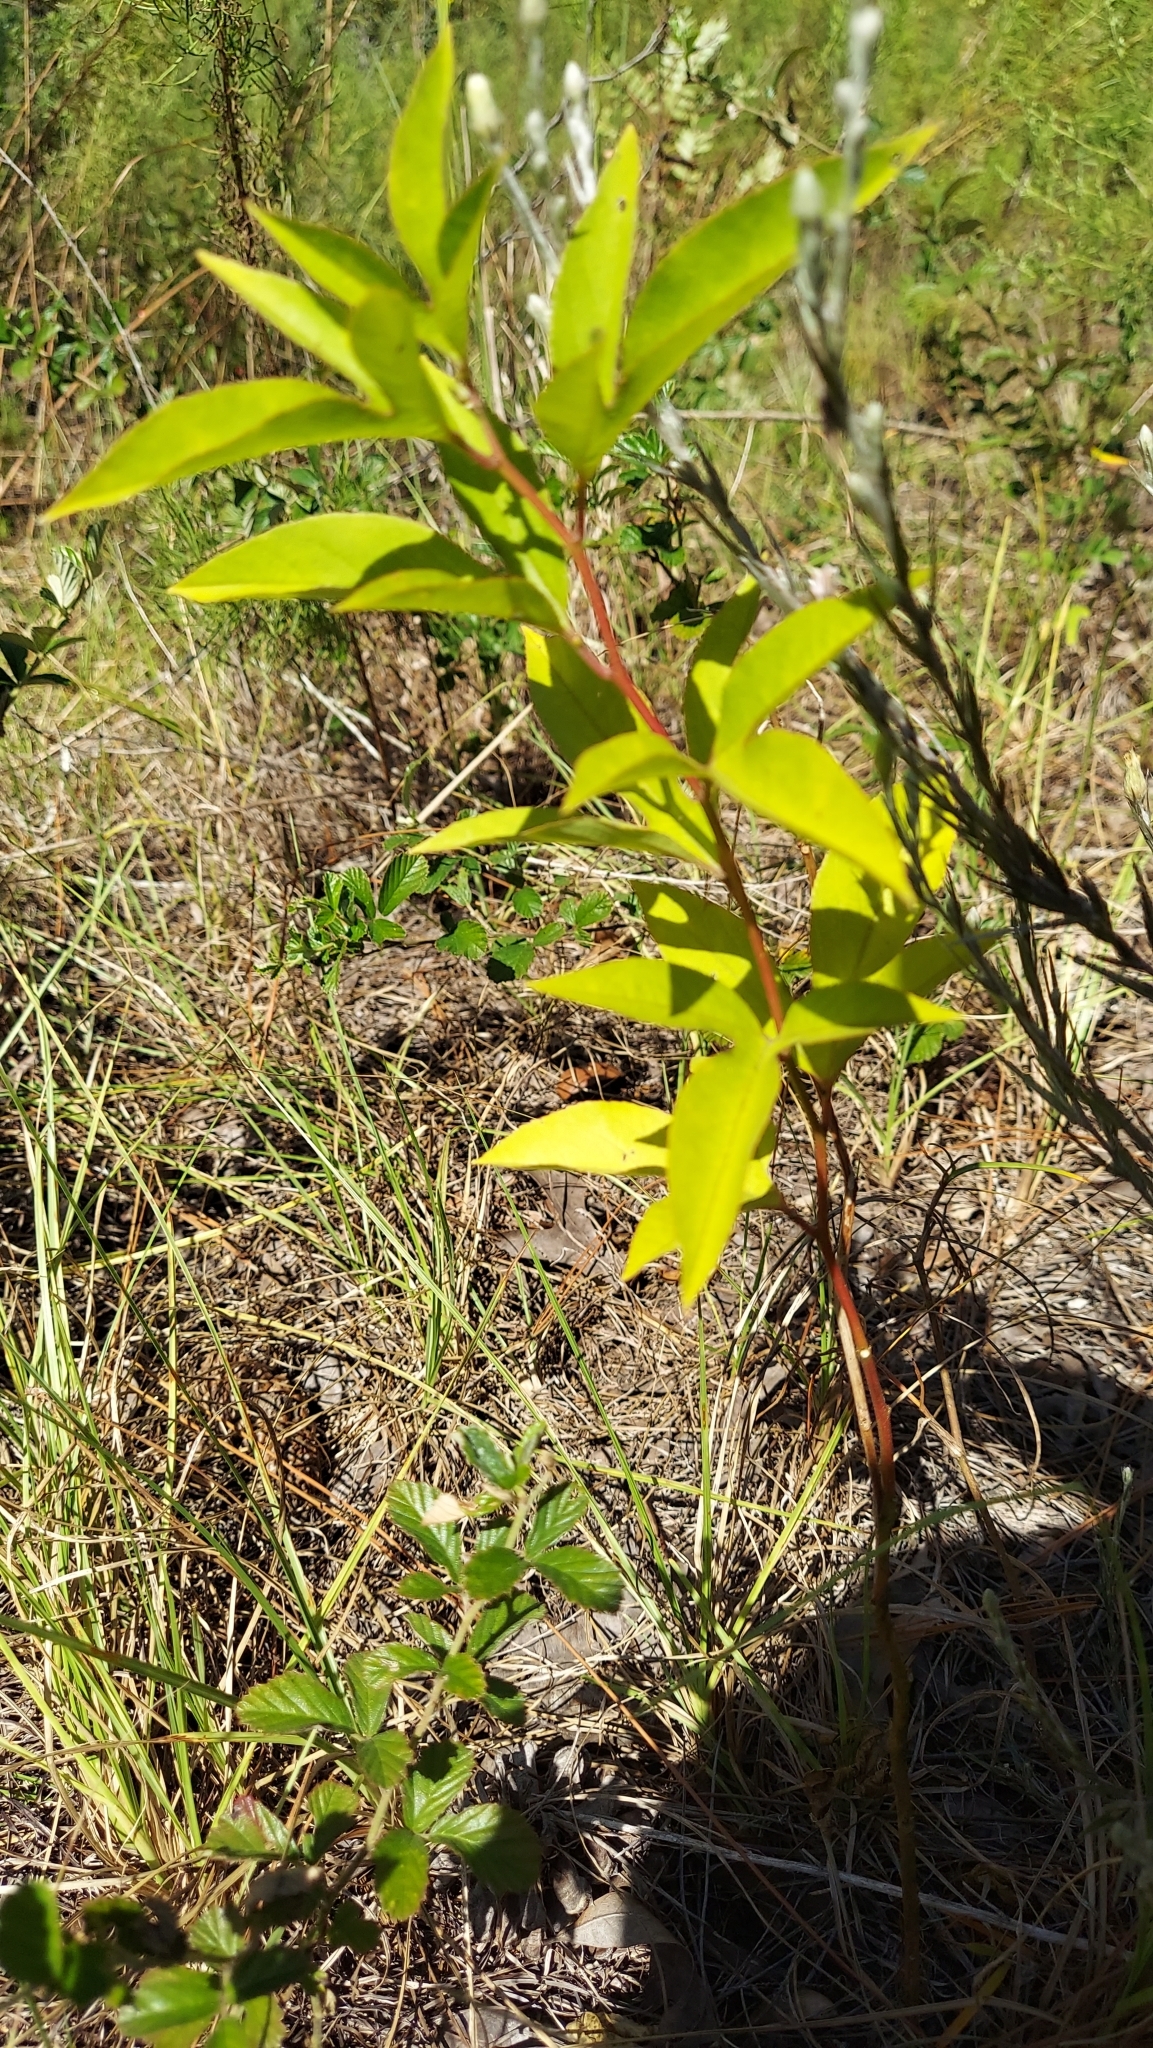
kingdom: Plantae
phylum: Tracheophyta
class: Magnoliopsida
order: Malpighiales
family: Passifloraceae
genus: Passiflora
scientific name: Passiflora incarnata
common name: Apricot-vine
